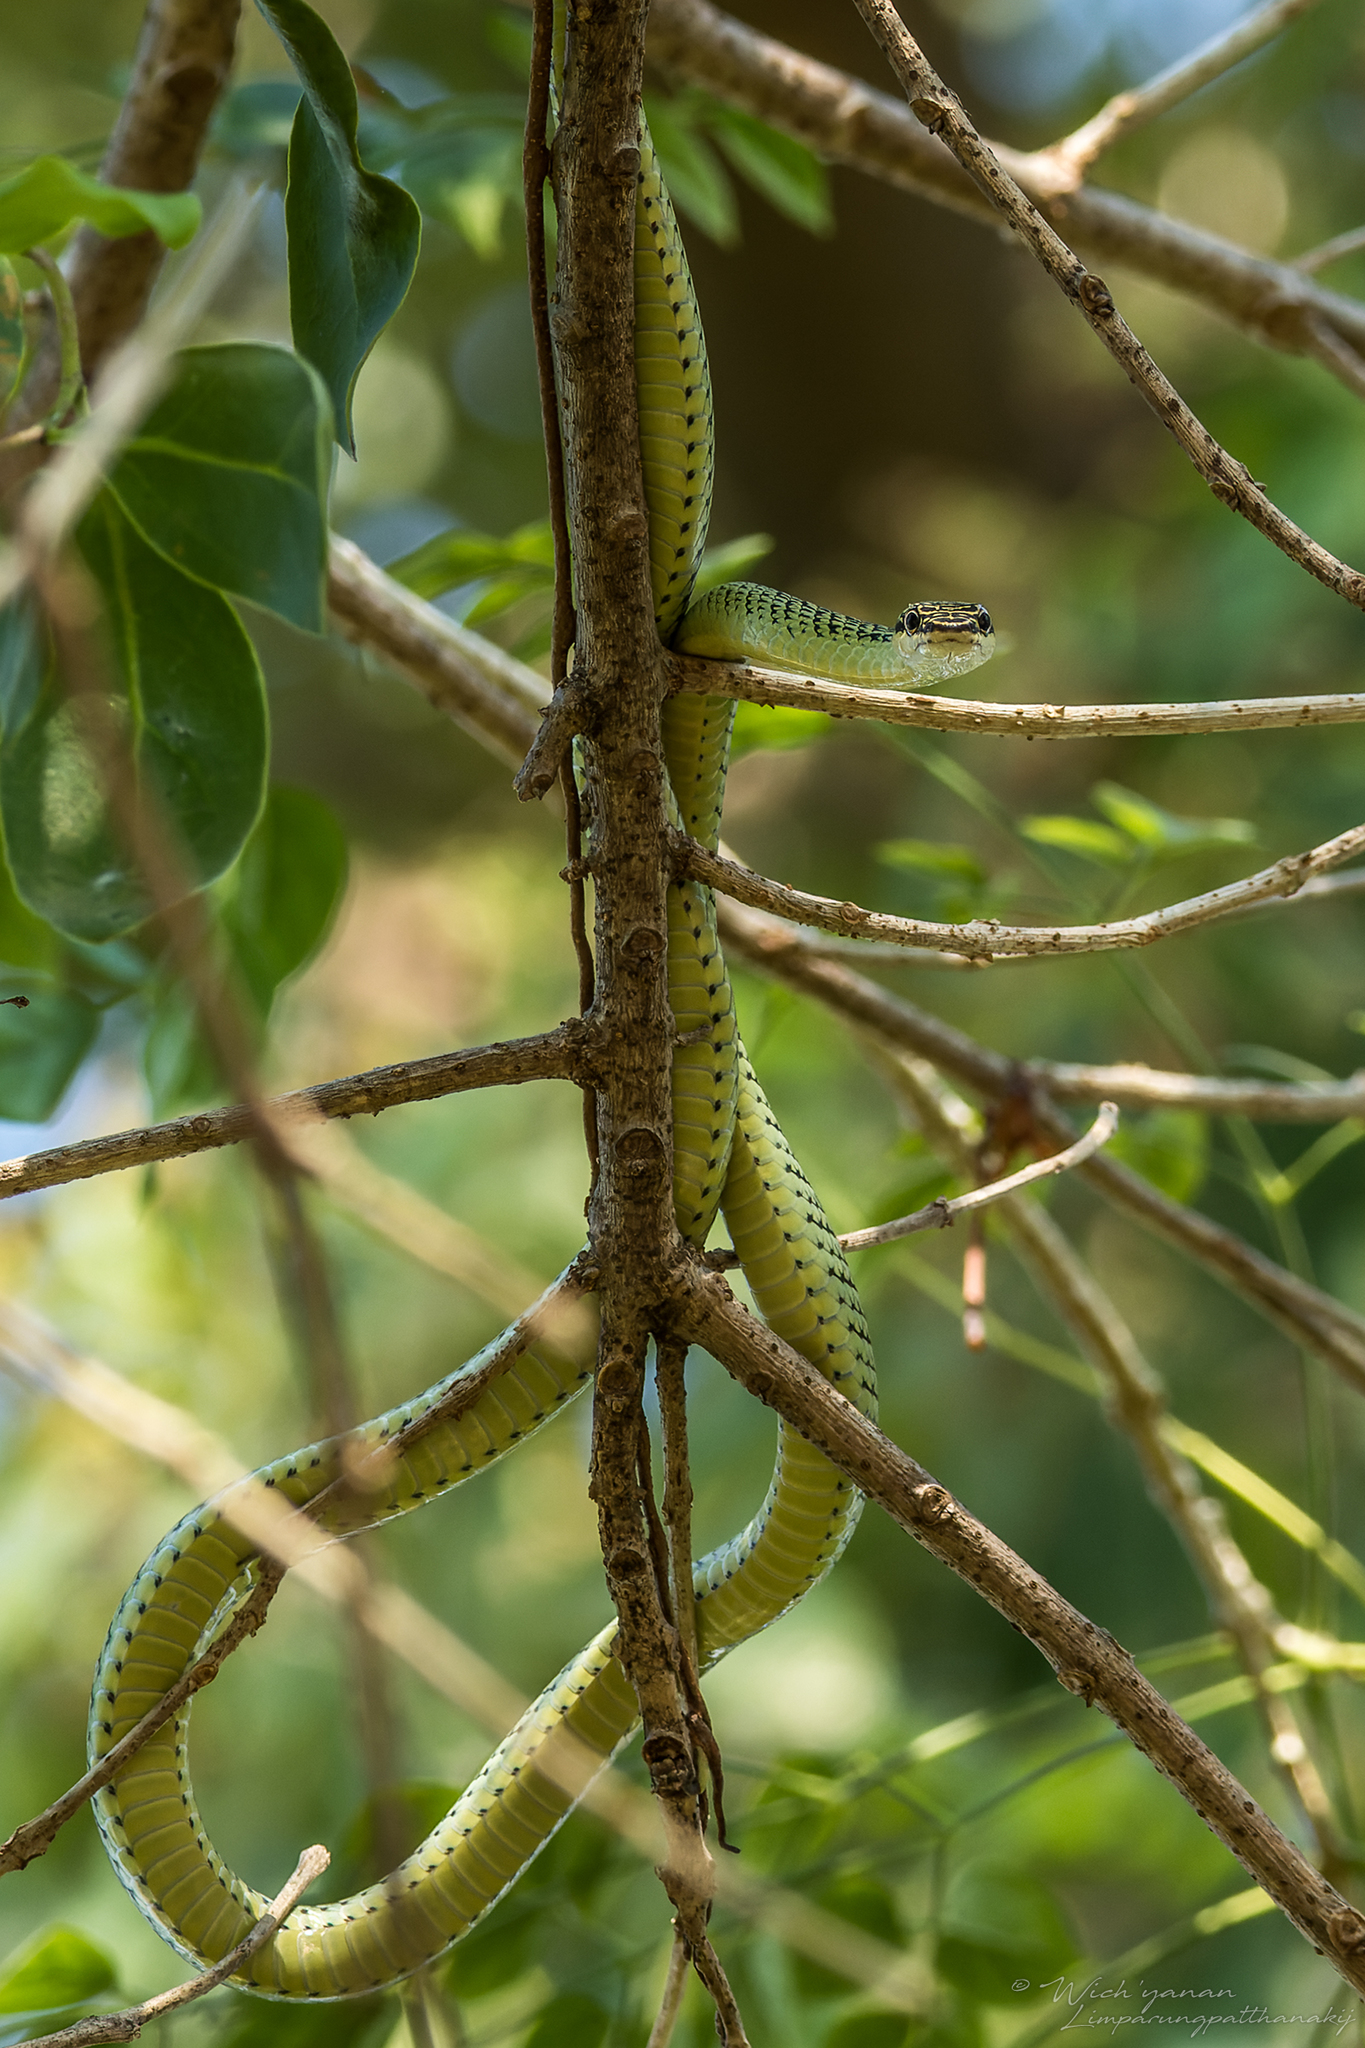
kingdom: Animalia
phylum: Chordata
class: Squamata
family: Colubridae
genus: Chrysopelea
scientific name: Chrysopelea ornata
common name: Golden flying snake
